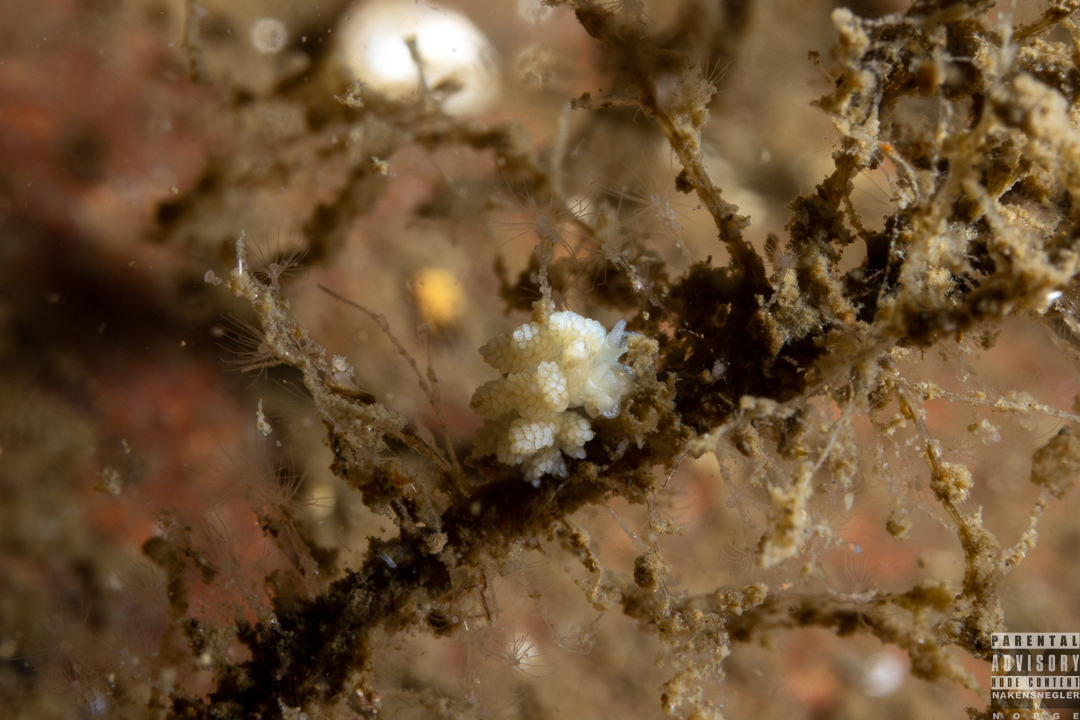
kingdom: Animalia
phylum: Mollusca
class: Gastropoda
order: Nudibranchia
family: Dotidae
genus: Doto
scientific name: Doto fragilis
